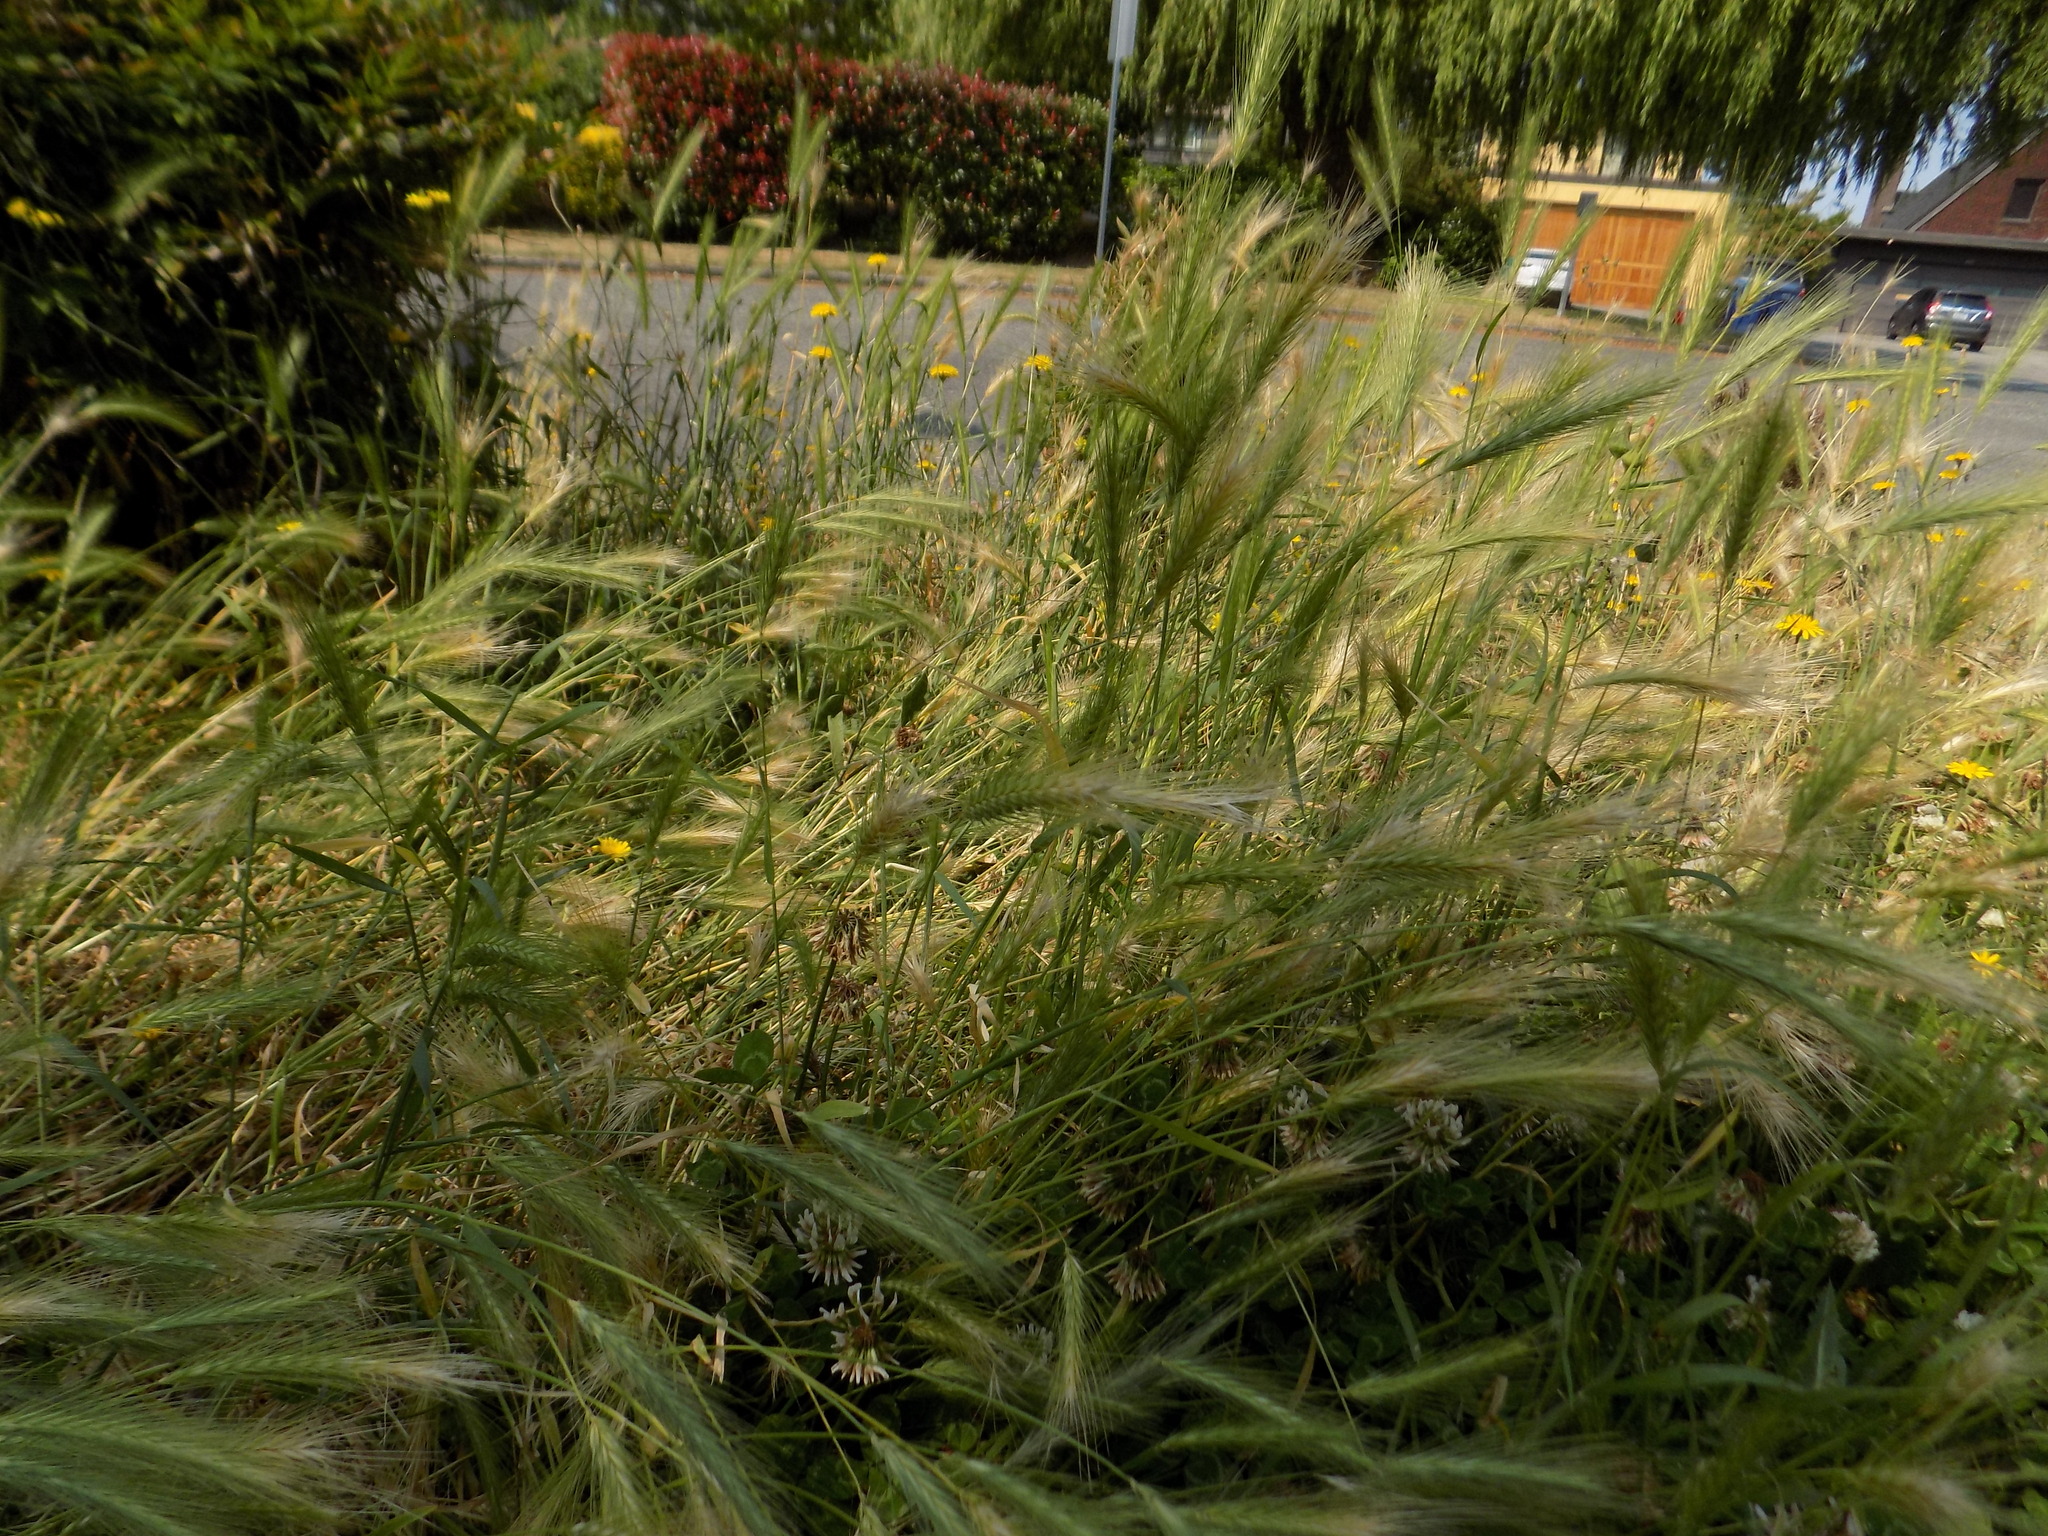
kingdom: Plantae
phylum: Tracheophyta
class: Liliopsida
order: Poales
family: Poaceae
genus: Hordeum
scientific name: Hordeum murinum
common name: Wall barley
